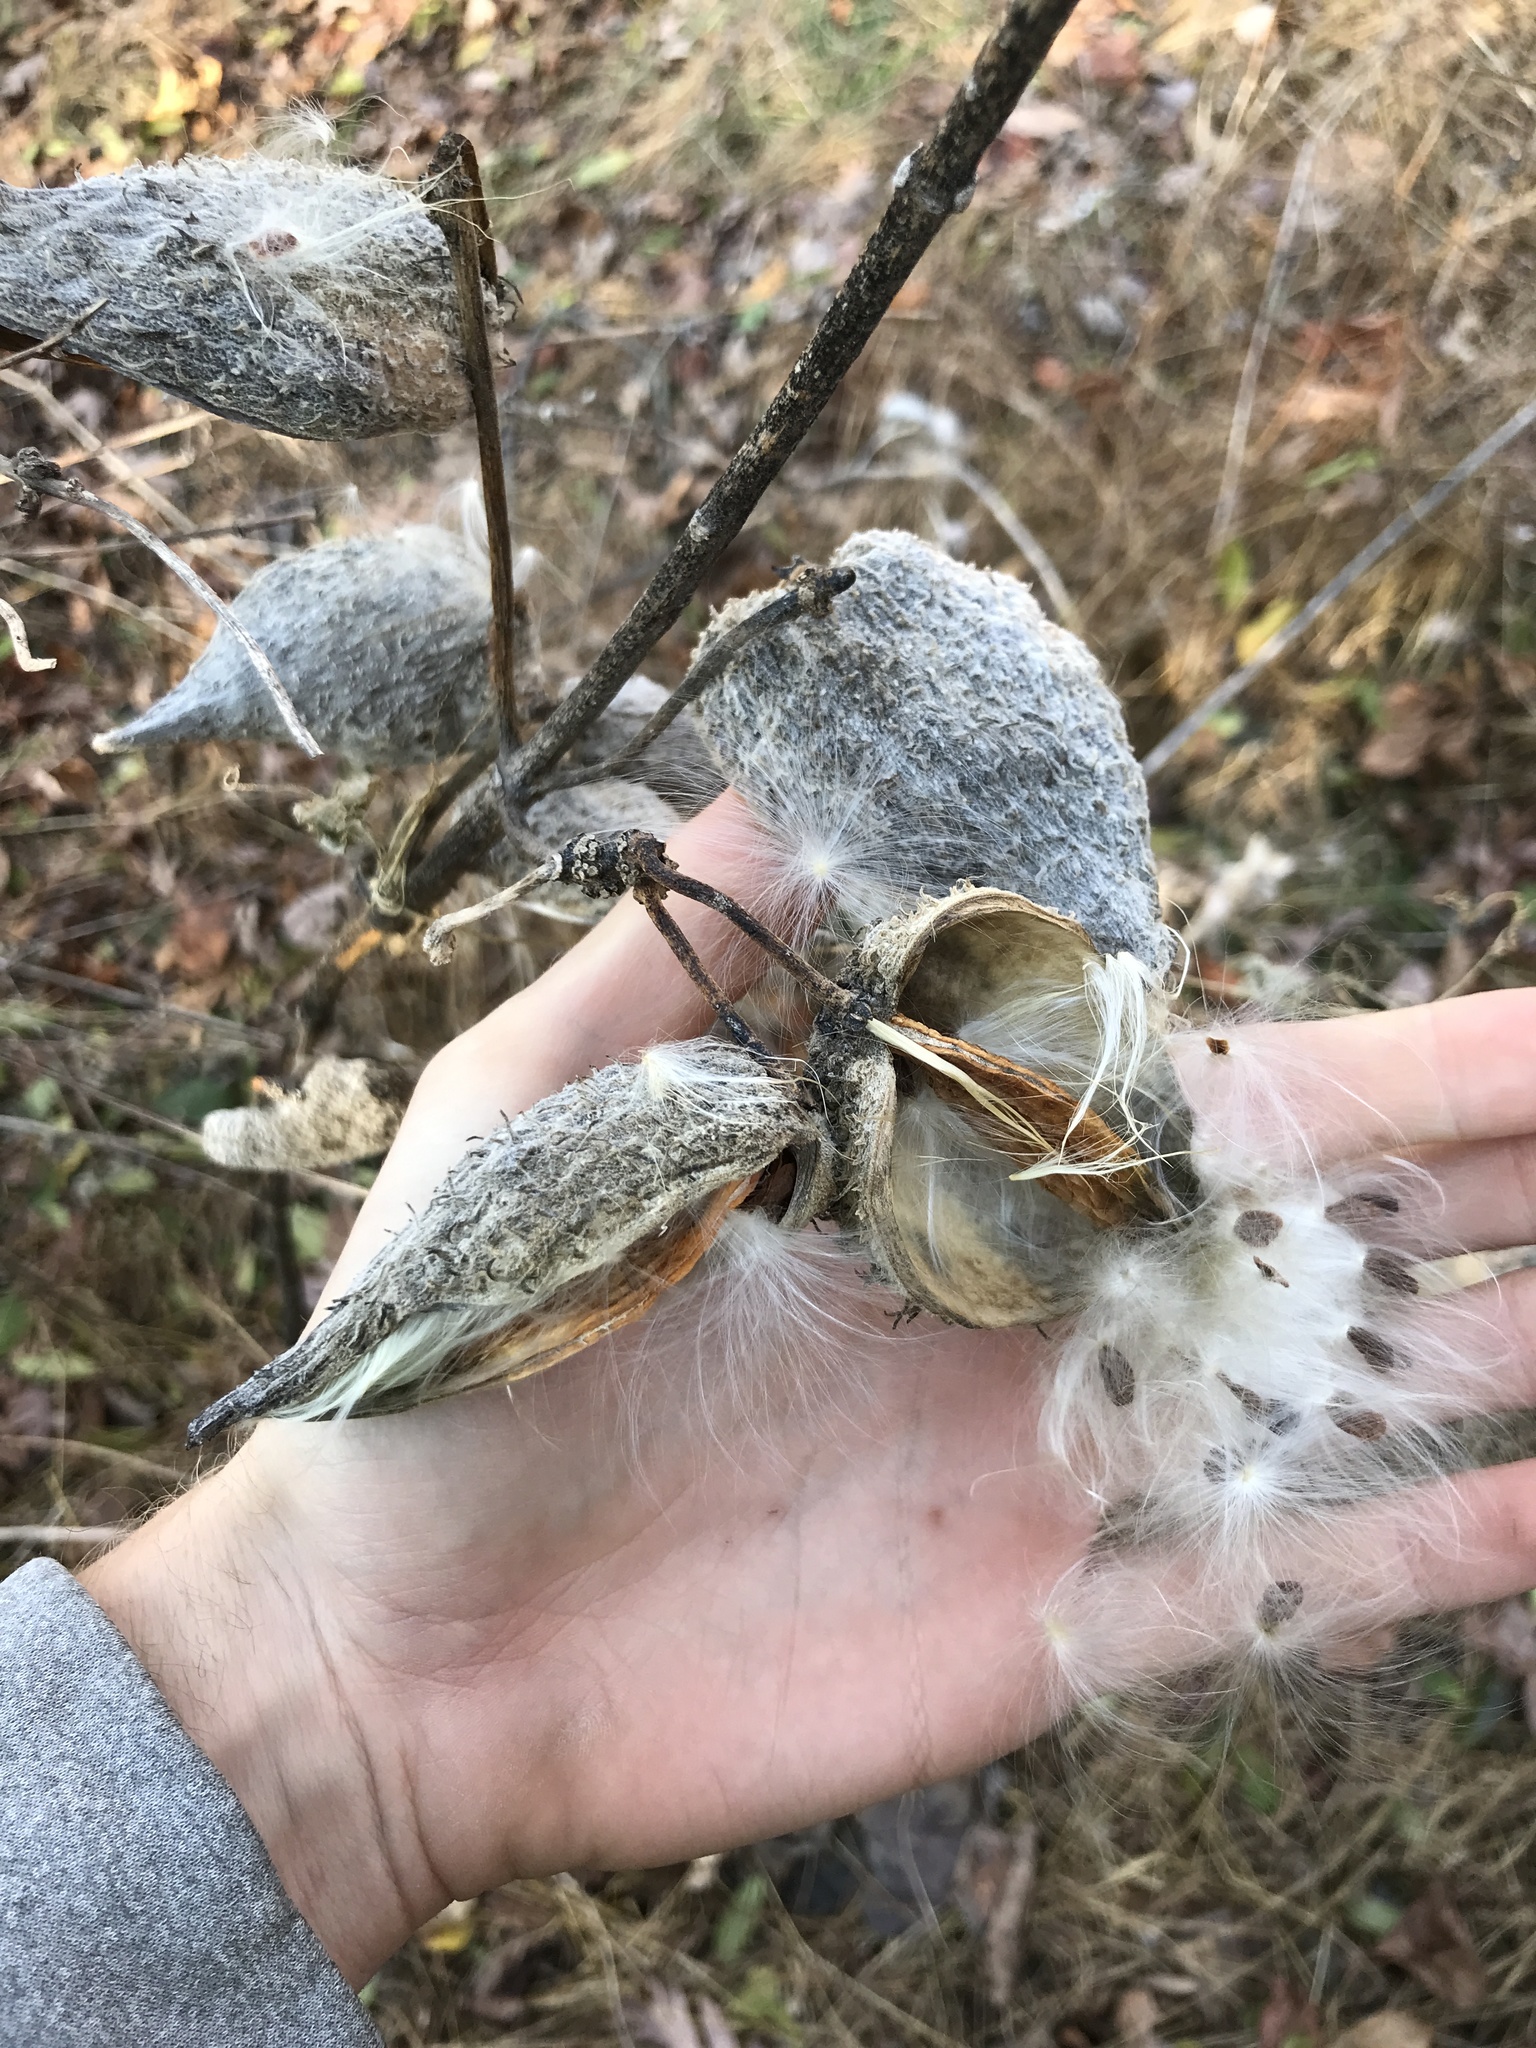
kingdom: Plantae
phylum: Tracheophyta
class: Magnoliopsida
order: Gentianales
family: Apocynaceae
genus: Asclepias
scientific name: Asclepias syriaca
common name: Common milkweed
